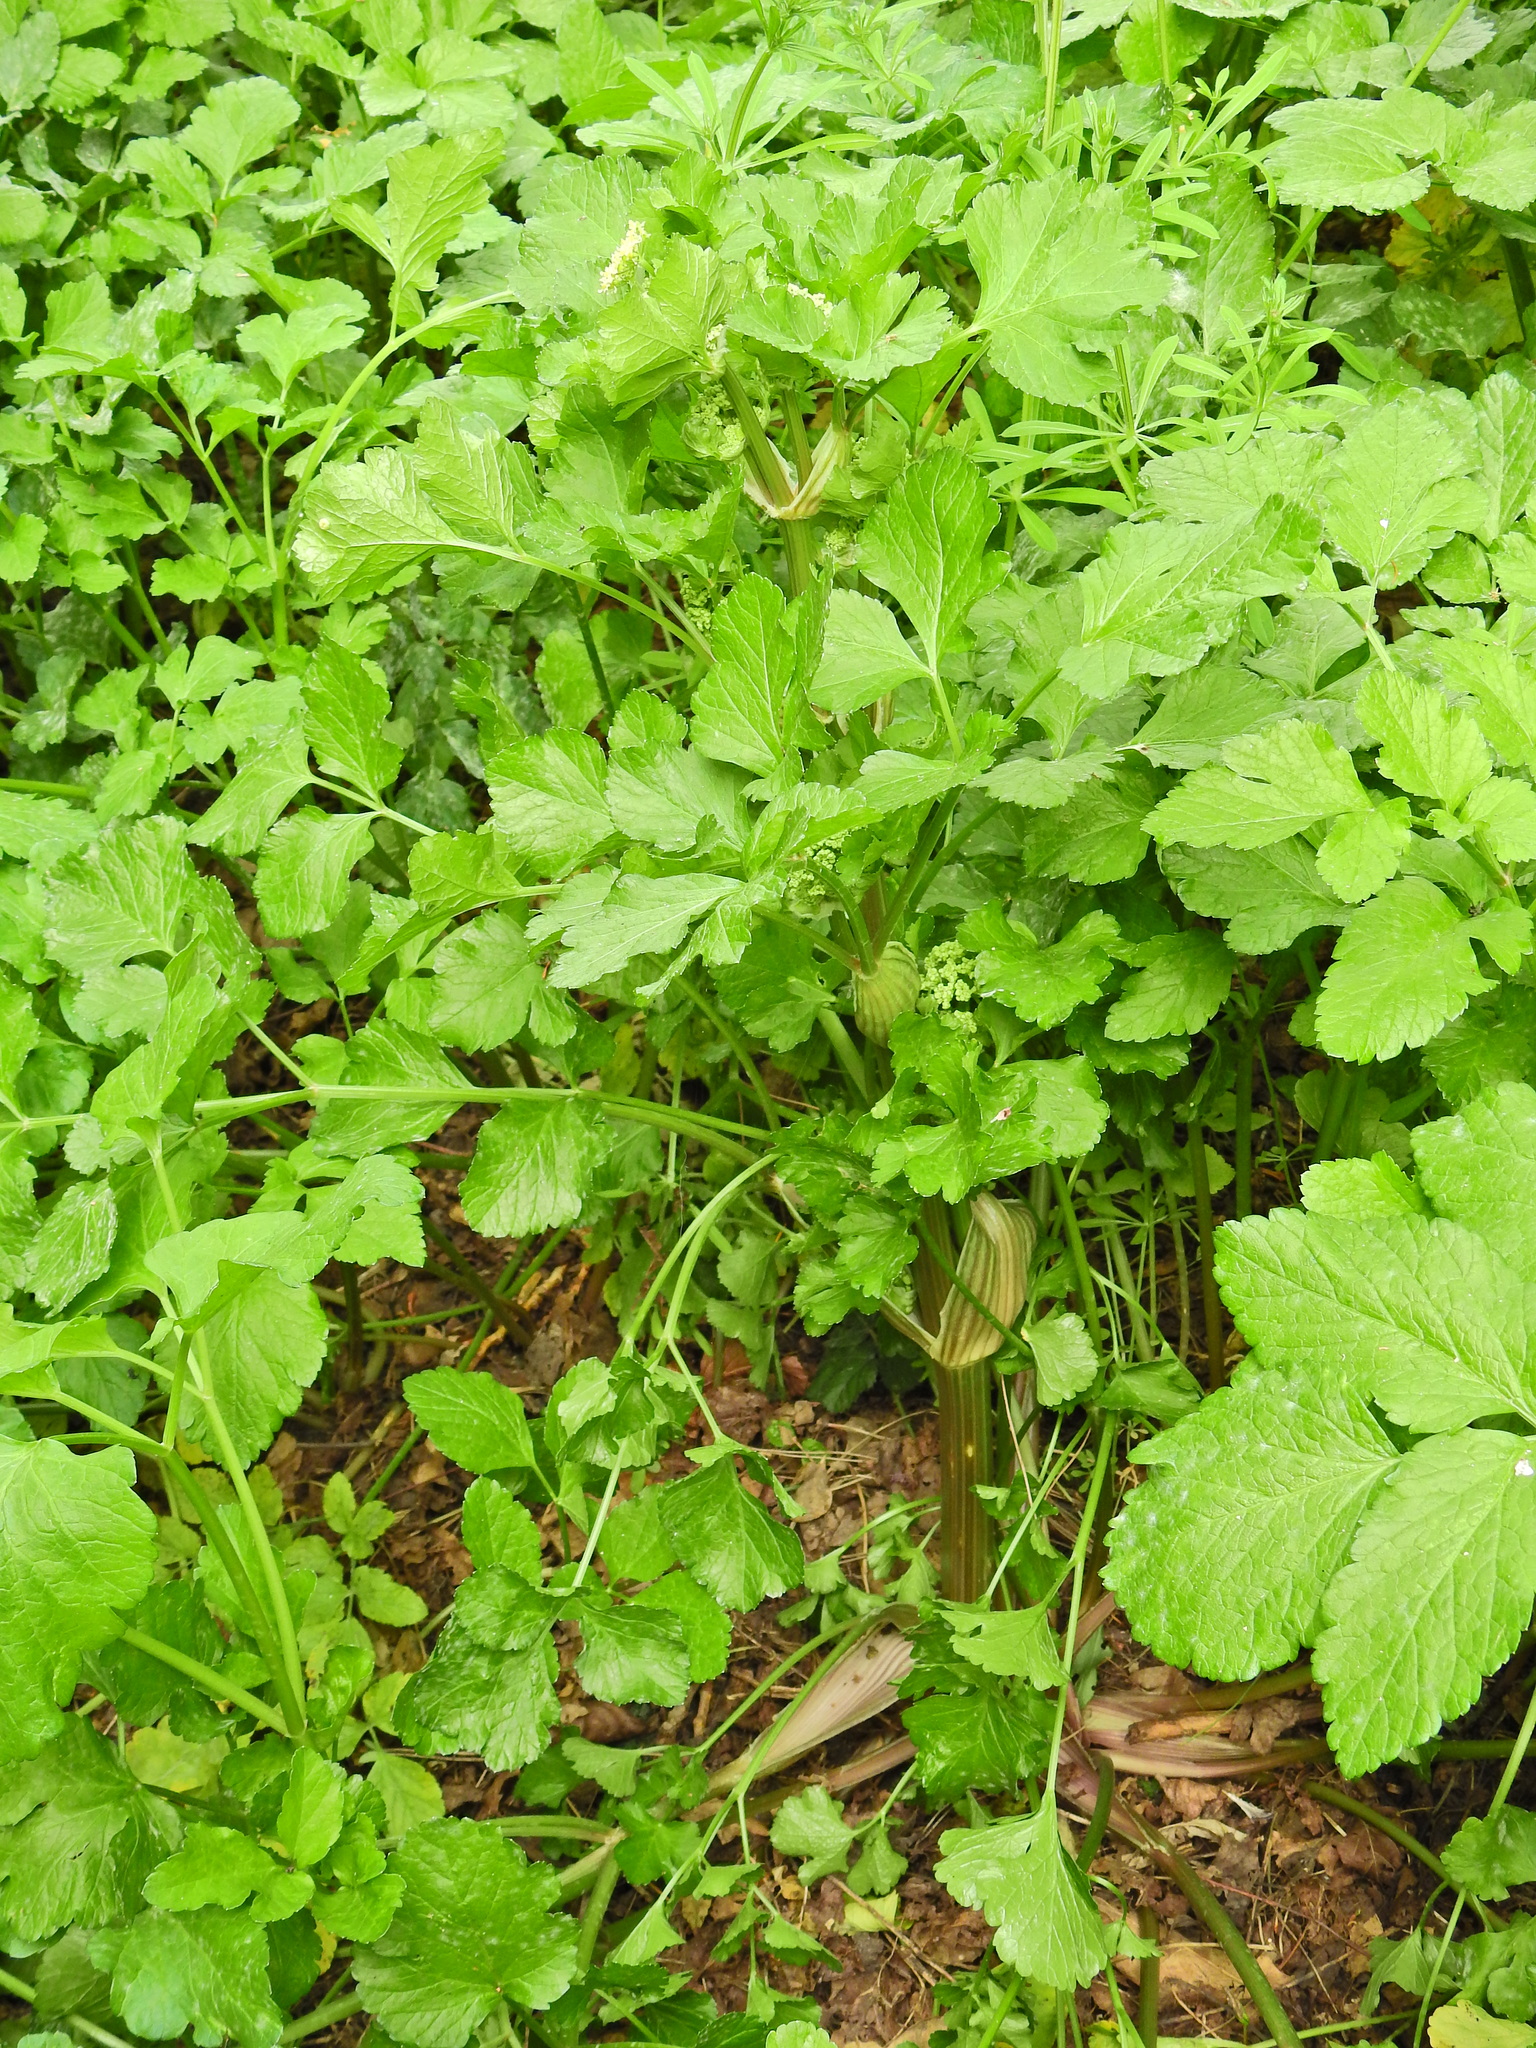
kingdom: Plantae
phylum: Tracheophyta
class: Magnoliopsida
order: Apiales
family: Apiaceae
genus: Smyrnium
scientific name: Smyrnium olusatrum
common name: Alexanders
